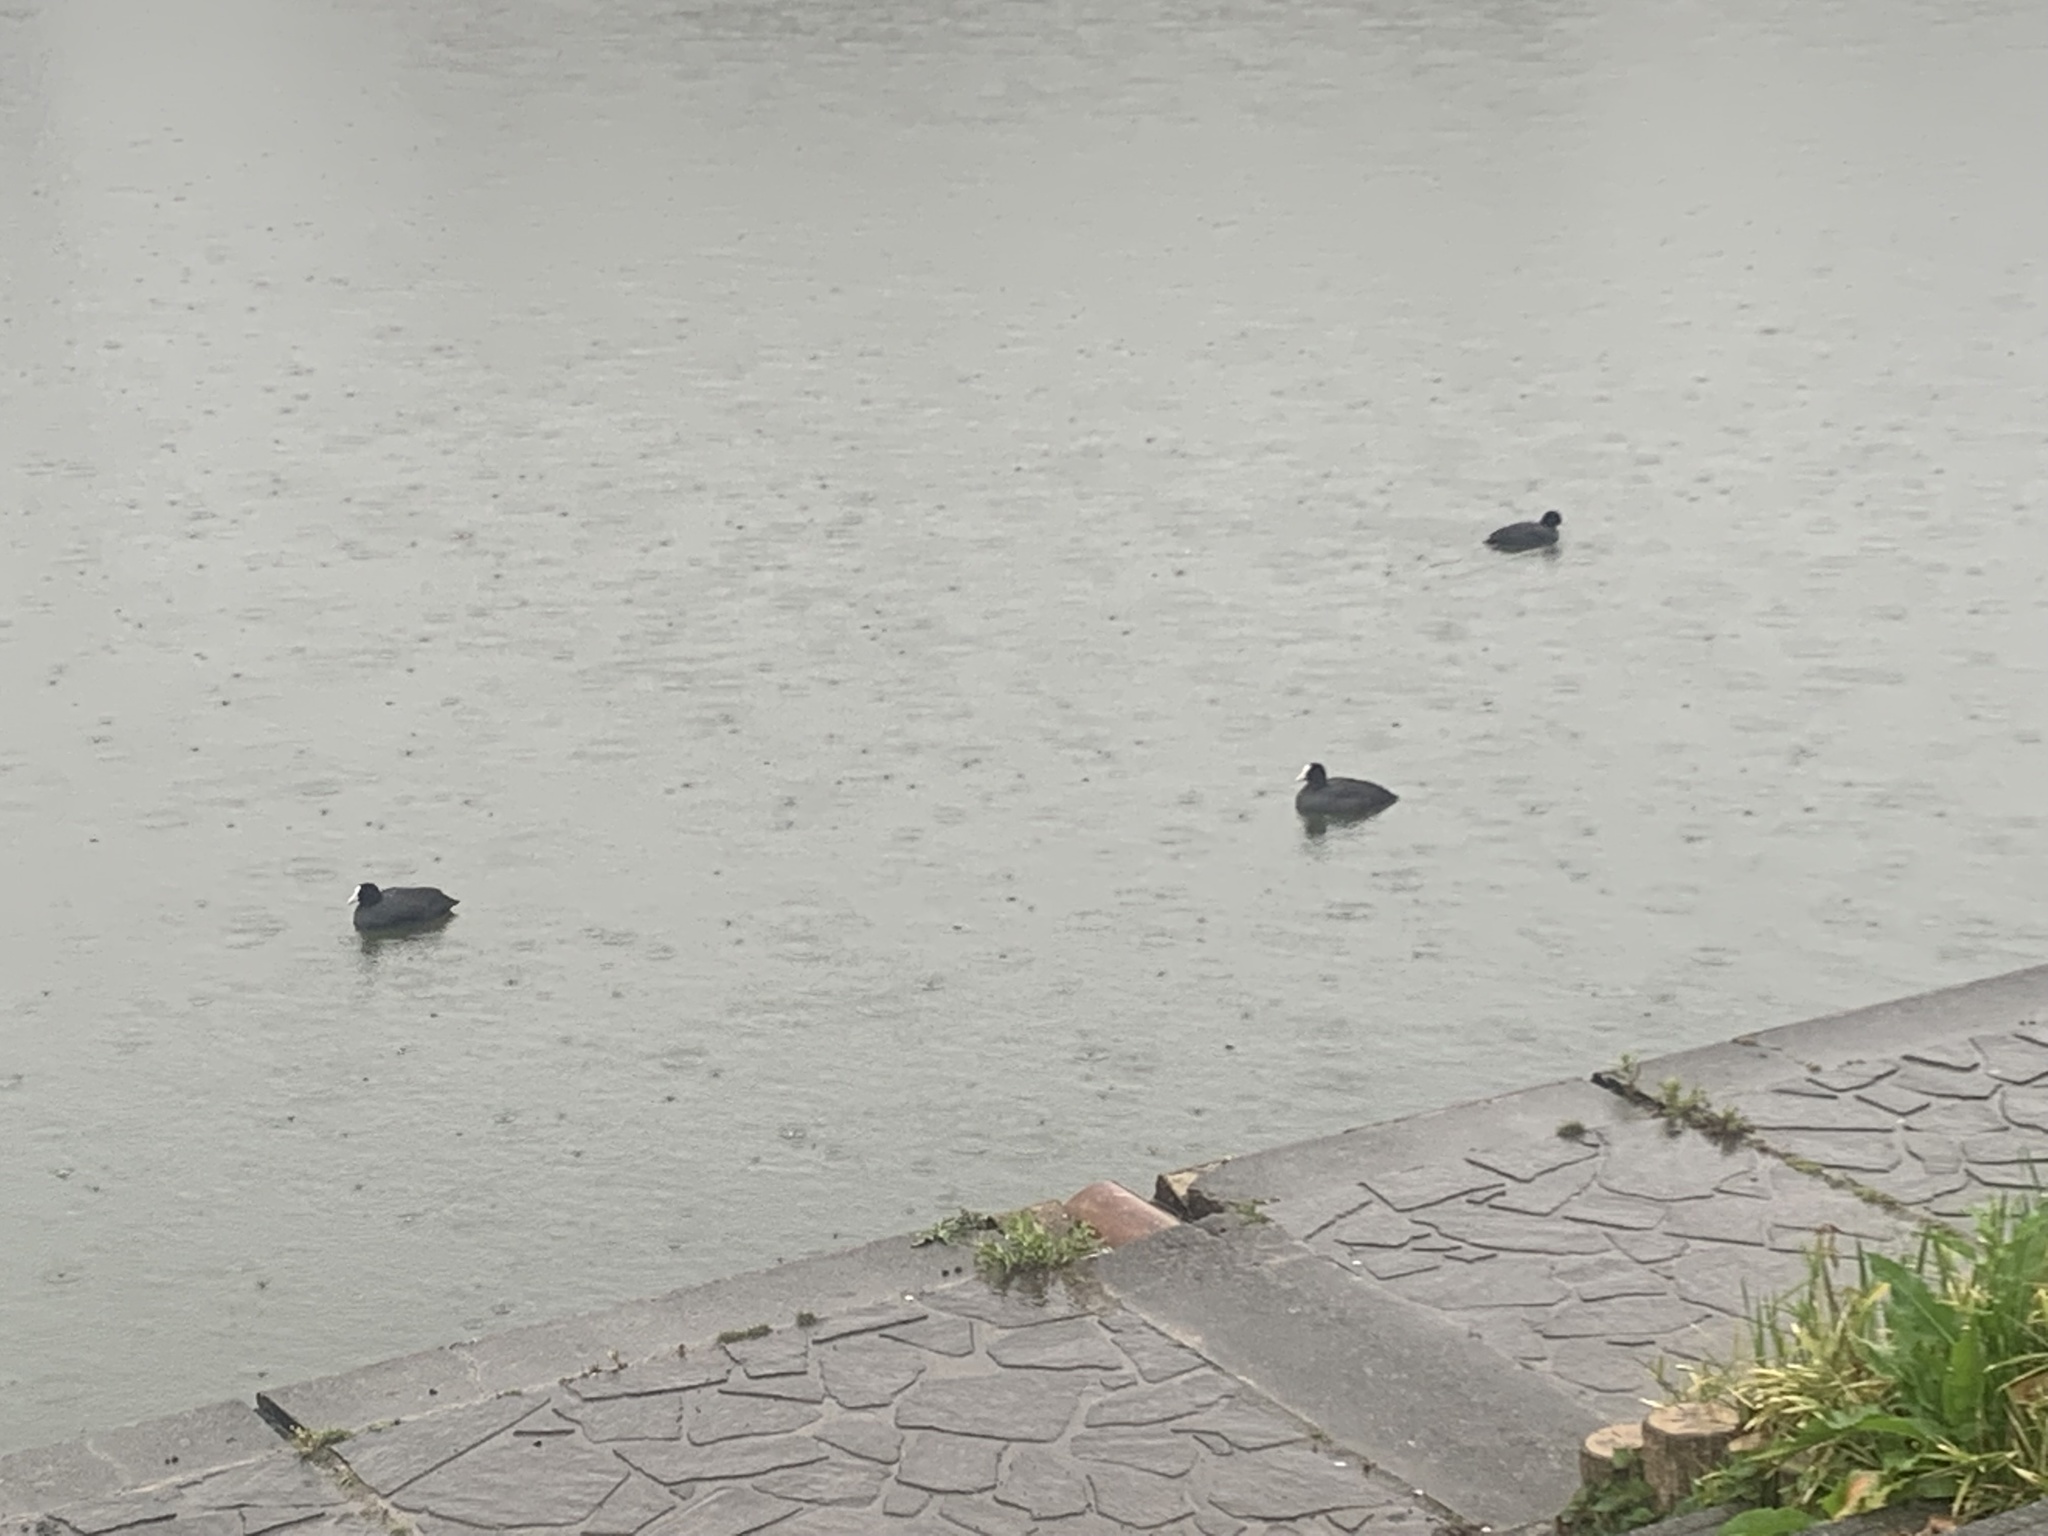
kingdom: Animalia
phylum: Chordata
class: Aves
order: Gruiformes
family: Rallidae
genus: Fulica
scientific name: Fulica atra
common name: Eurasian coot
